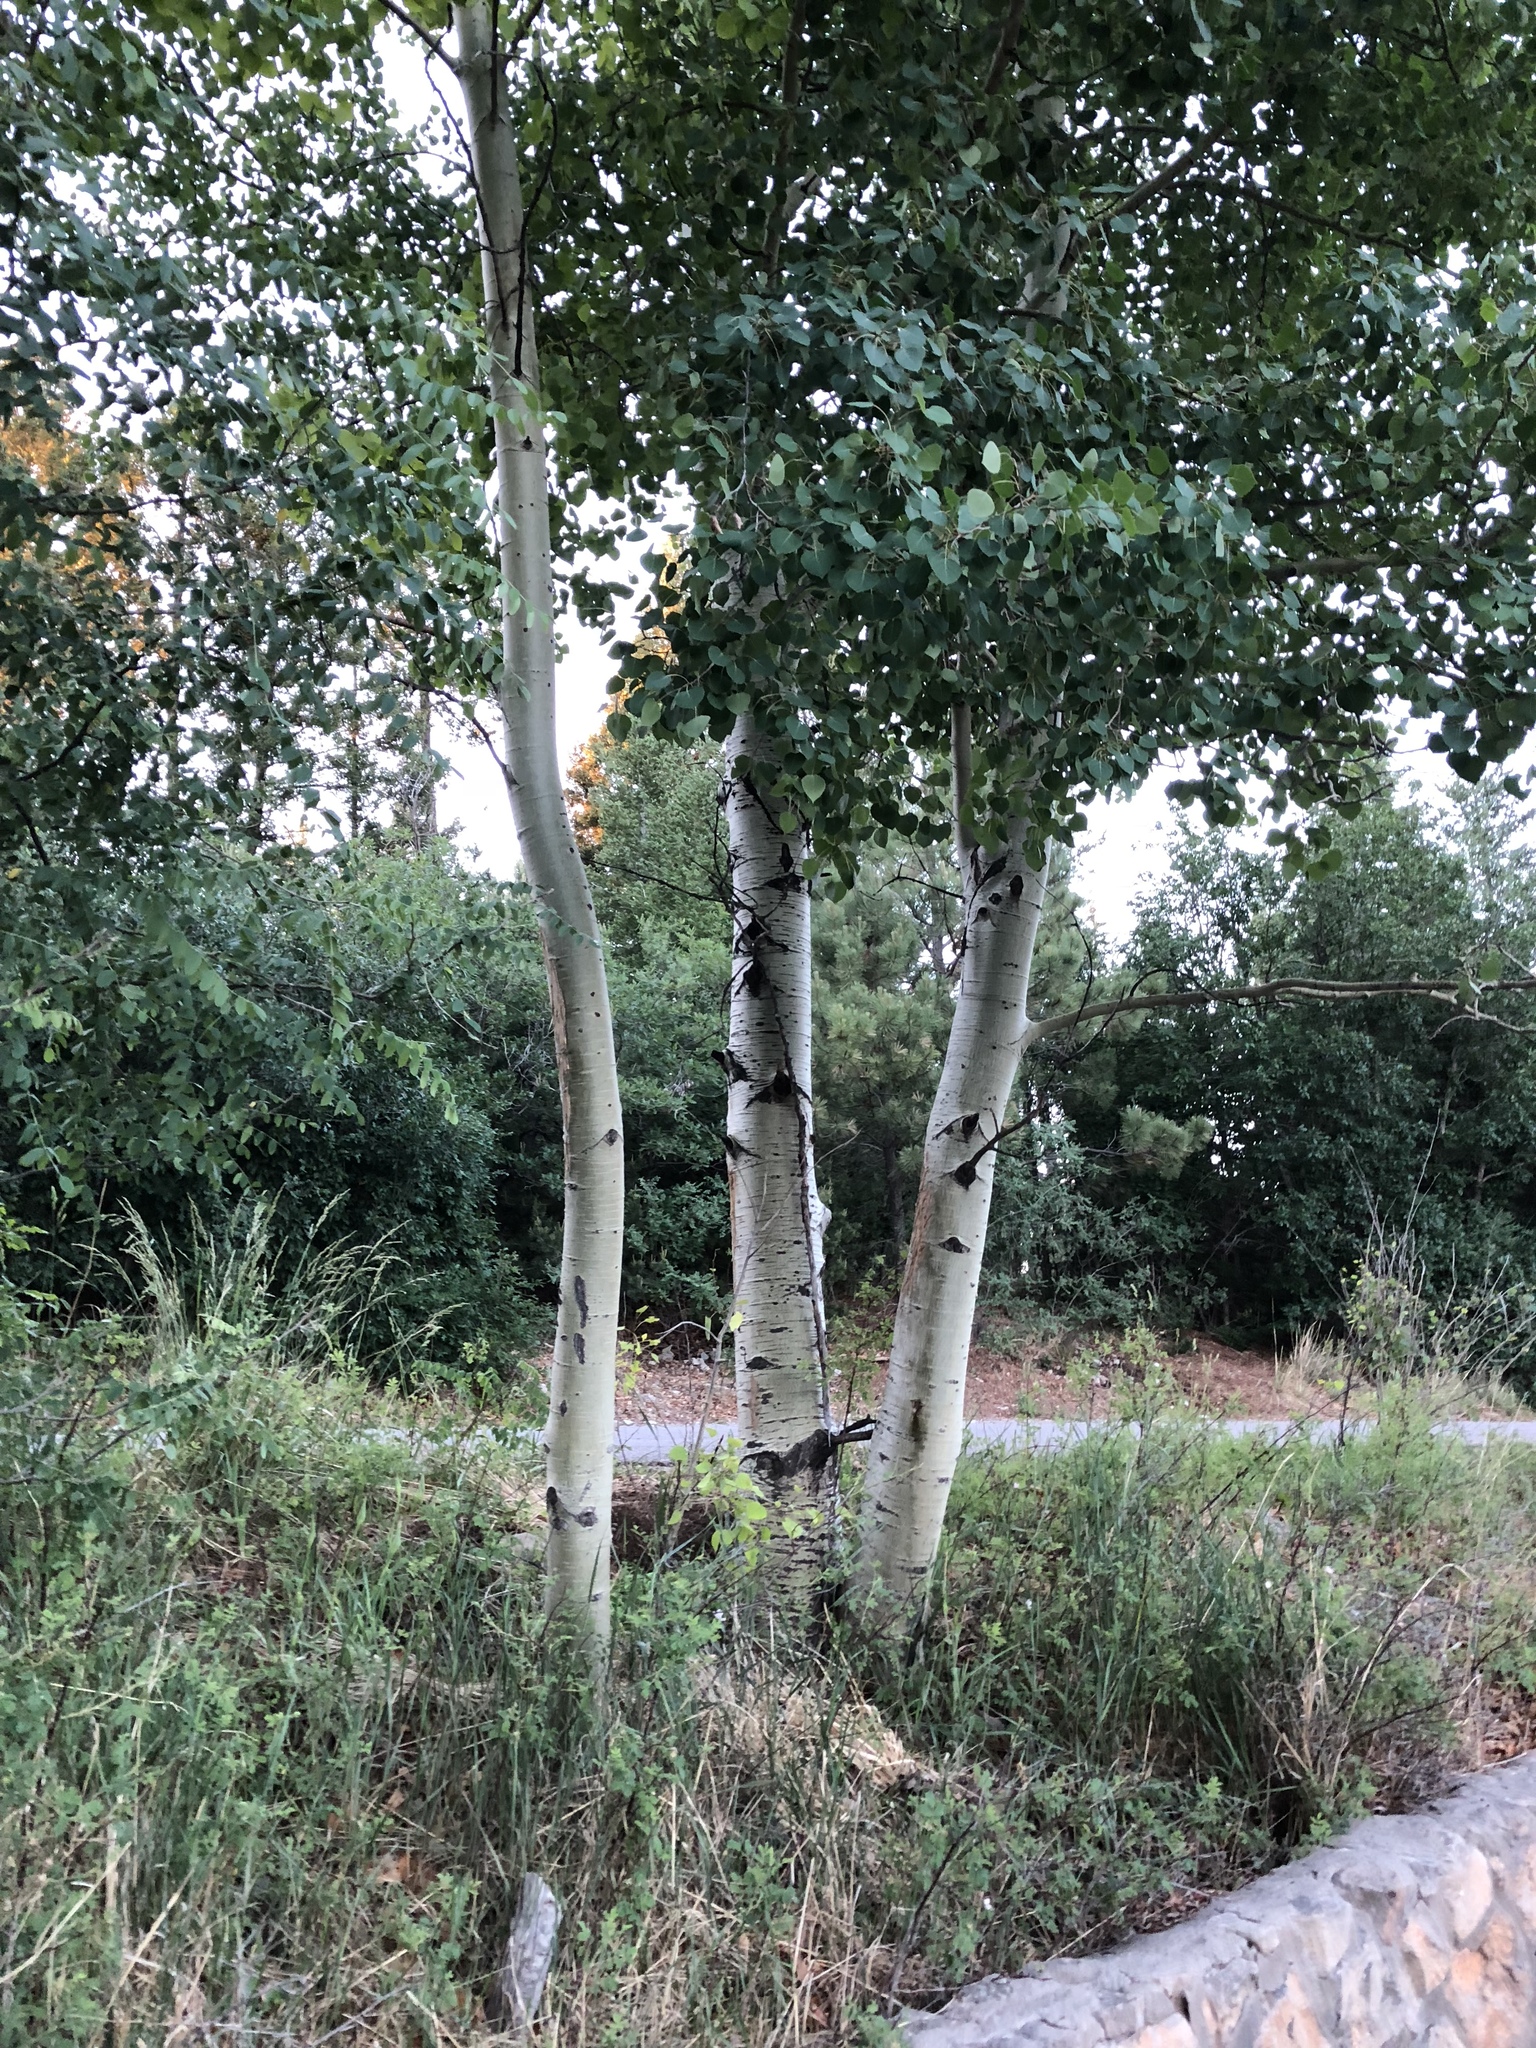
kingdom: Plantae
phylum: Tracheophyta
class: Magnoliopsida
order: Malpighiales
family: Salicaceae
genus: Populus
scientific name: Populus tremuloides
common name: Quaking aspen
